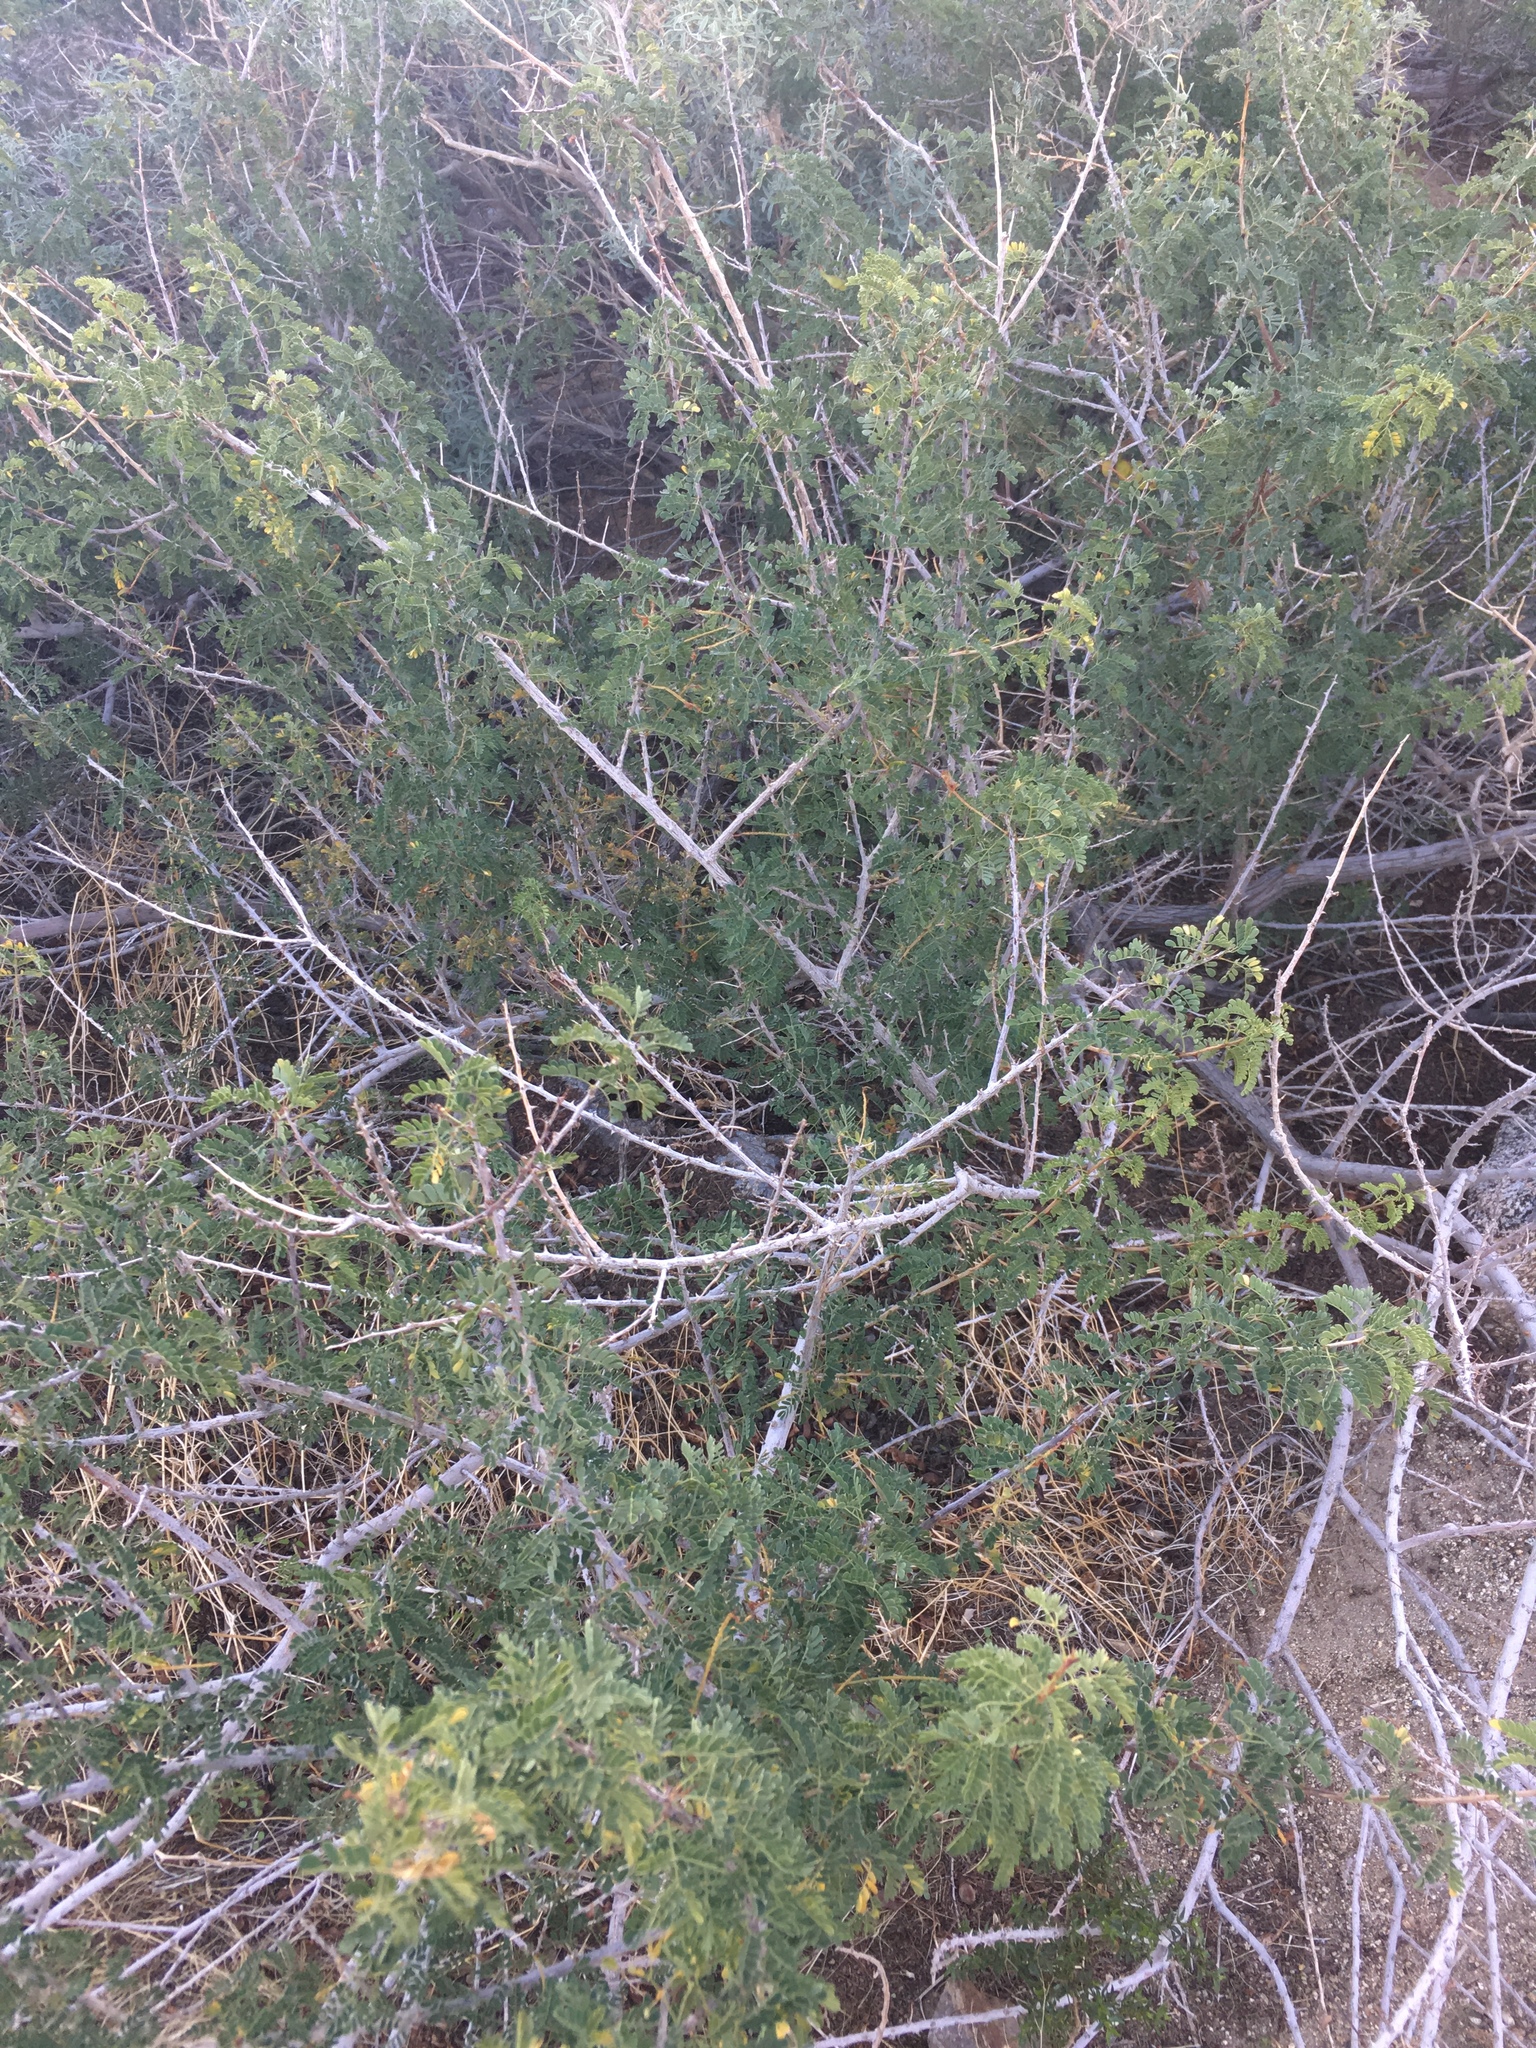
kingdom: Plantae
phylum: Tracheophyta
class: Magnoliopsida
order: Fabales
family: Fabaceae
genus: Senegalia
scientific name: Senegalia greggii
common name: Texas-mimosa
